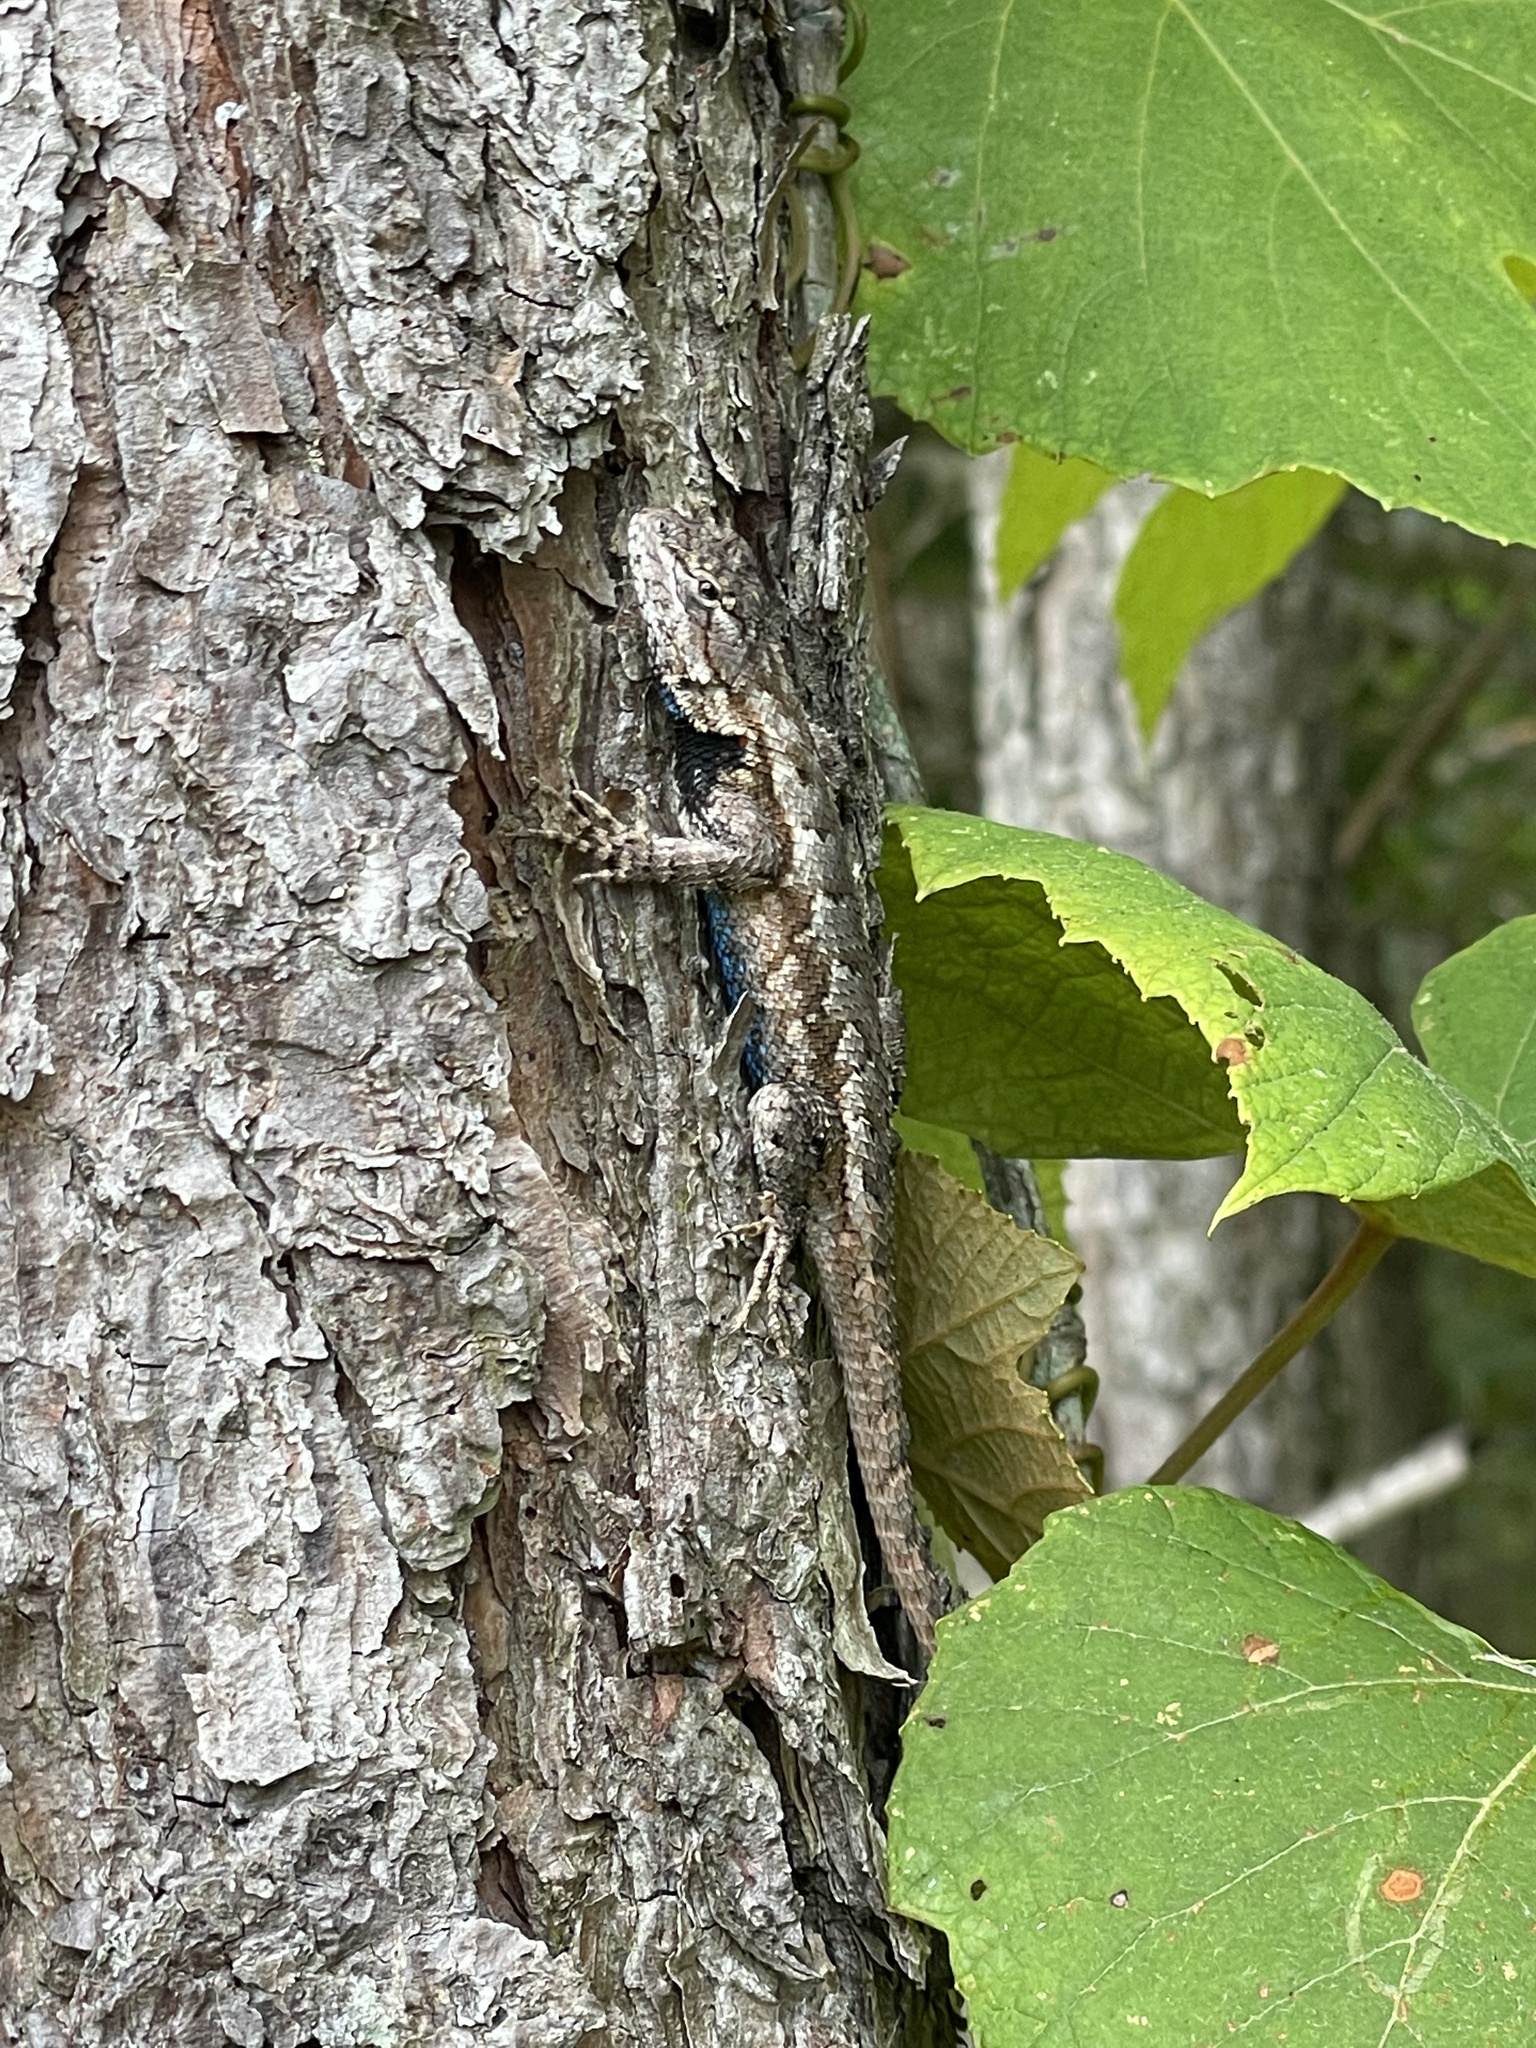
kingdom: Animalia
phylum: Chordata
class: Squamata
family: Phrynosomatidae
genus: Sceloporus
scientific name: Sceloporus undulatus
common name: Eastern fence lizard
